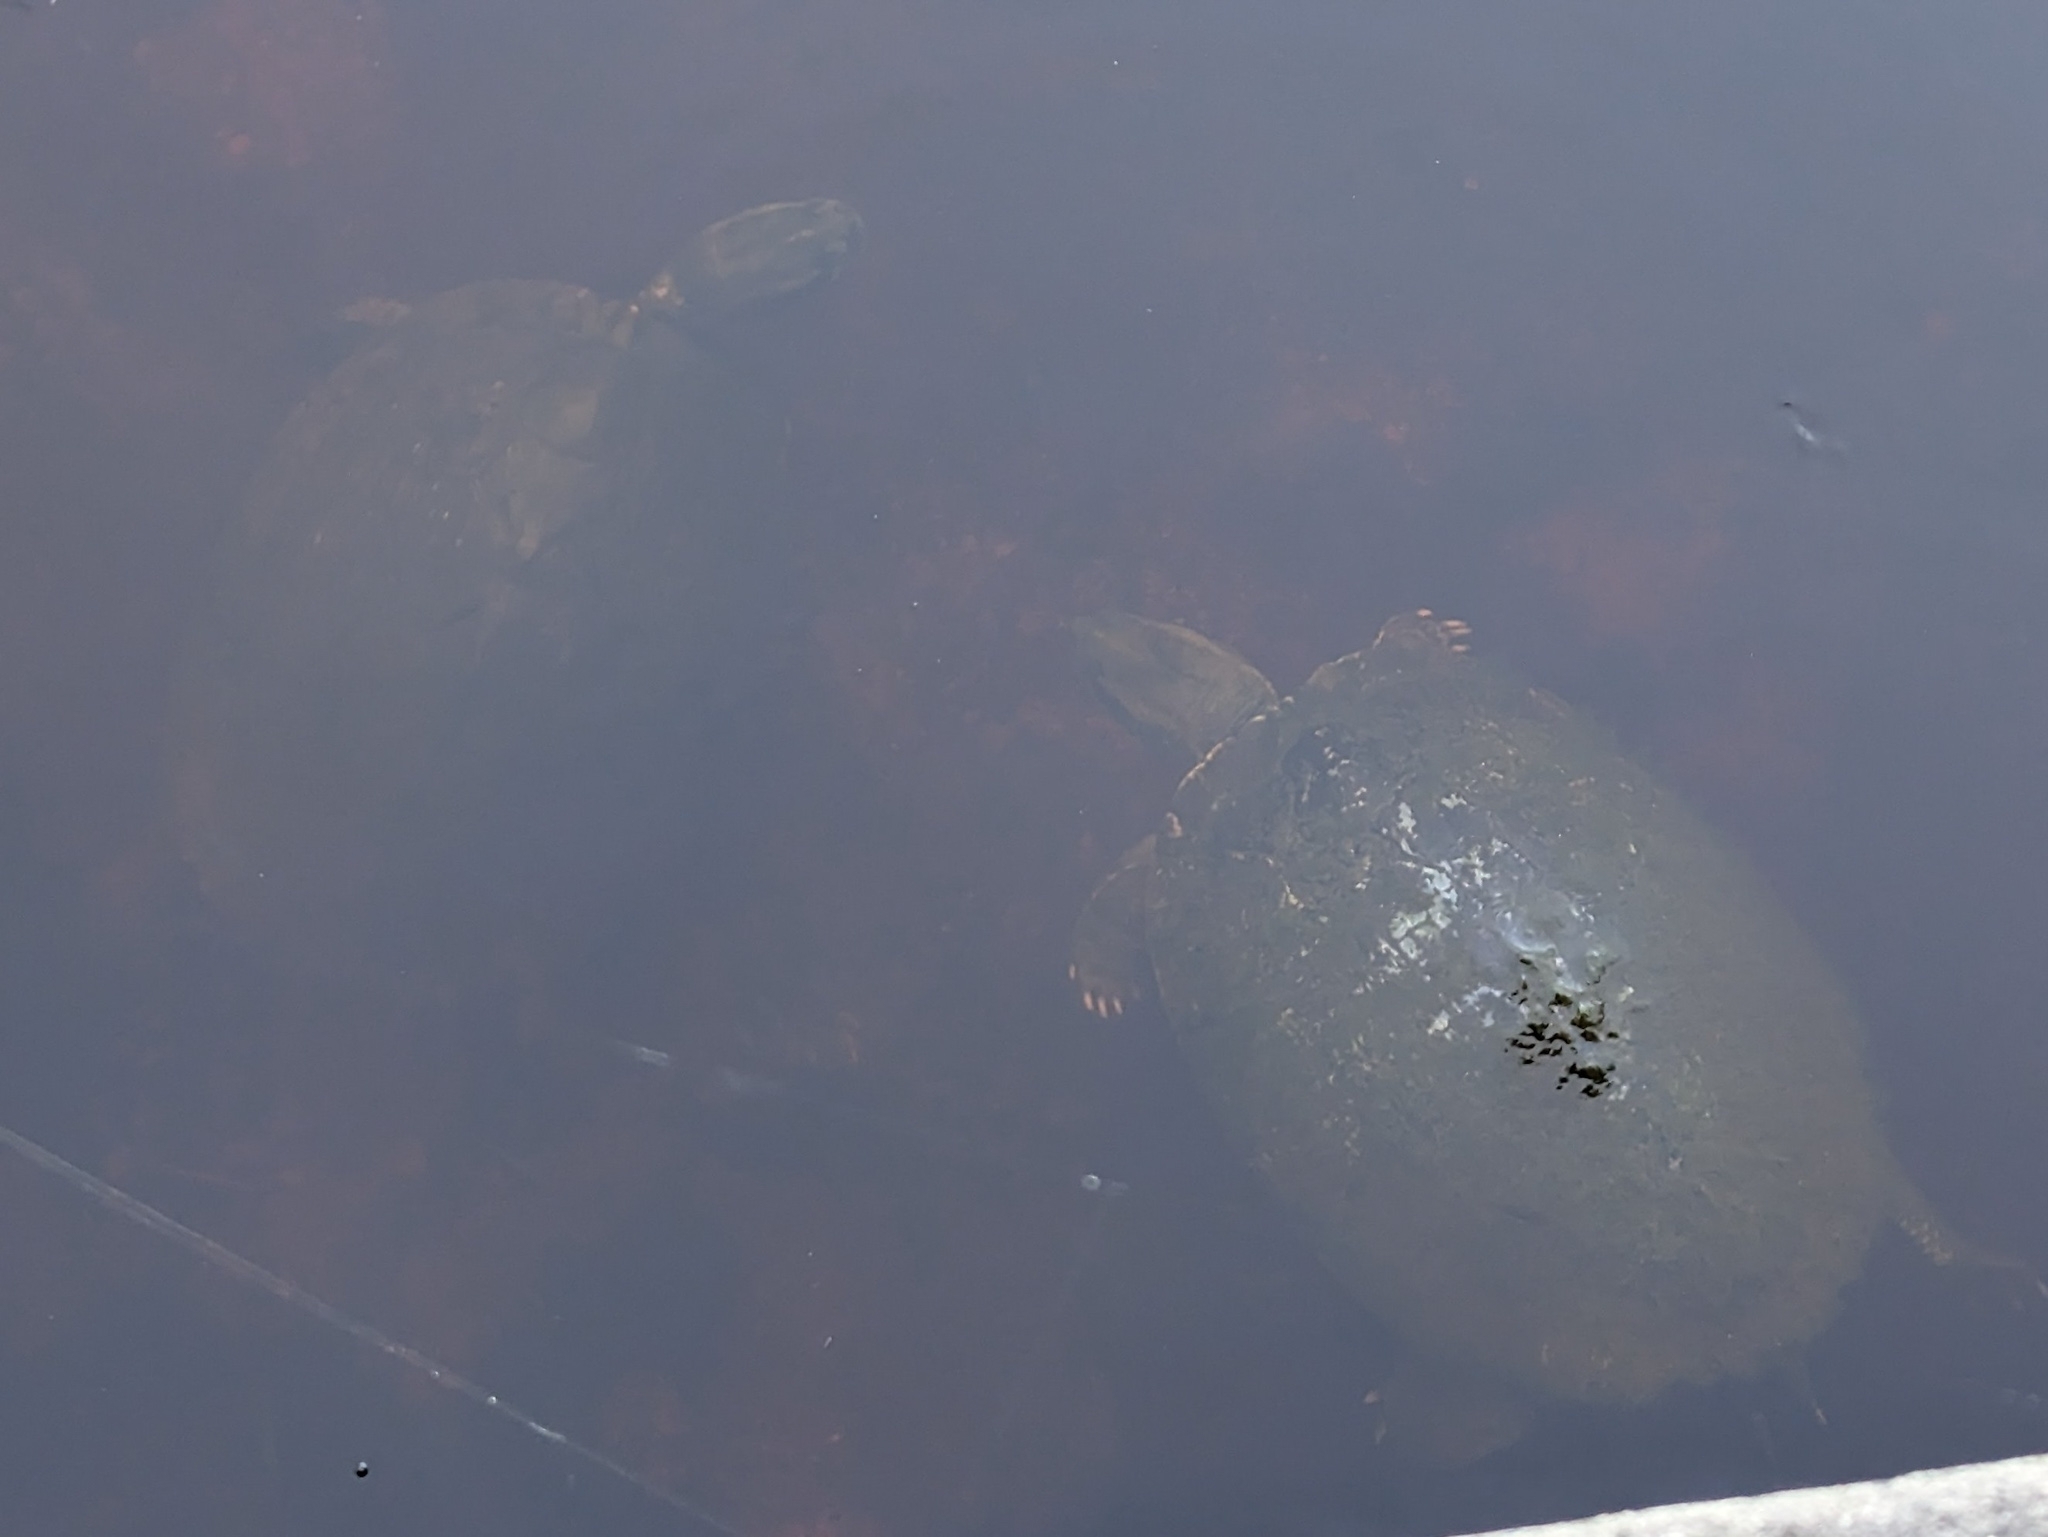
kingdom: Animalia
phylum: Chordata
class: Testudines
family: Emydidae
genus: Trachemys
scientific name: Trachemys decussata
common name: North antillean slider
